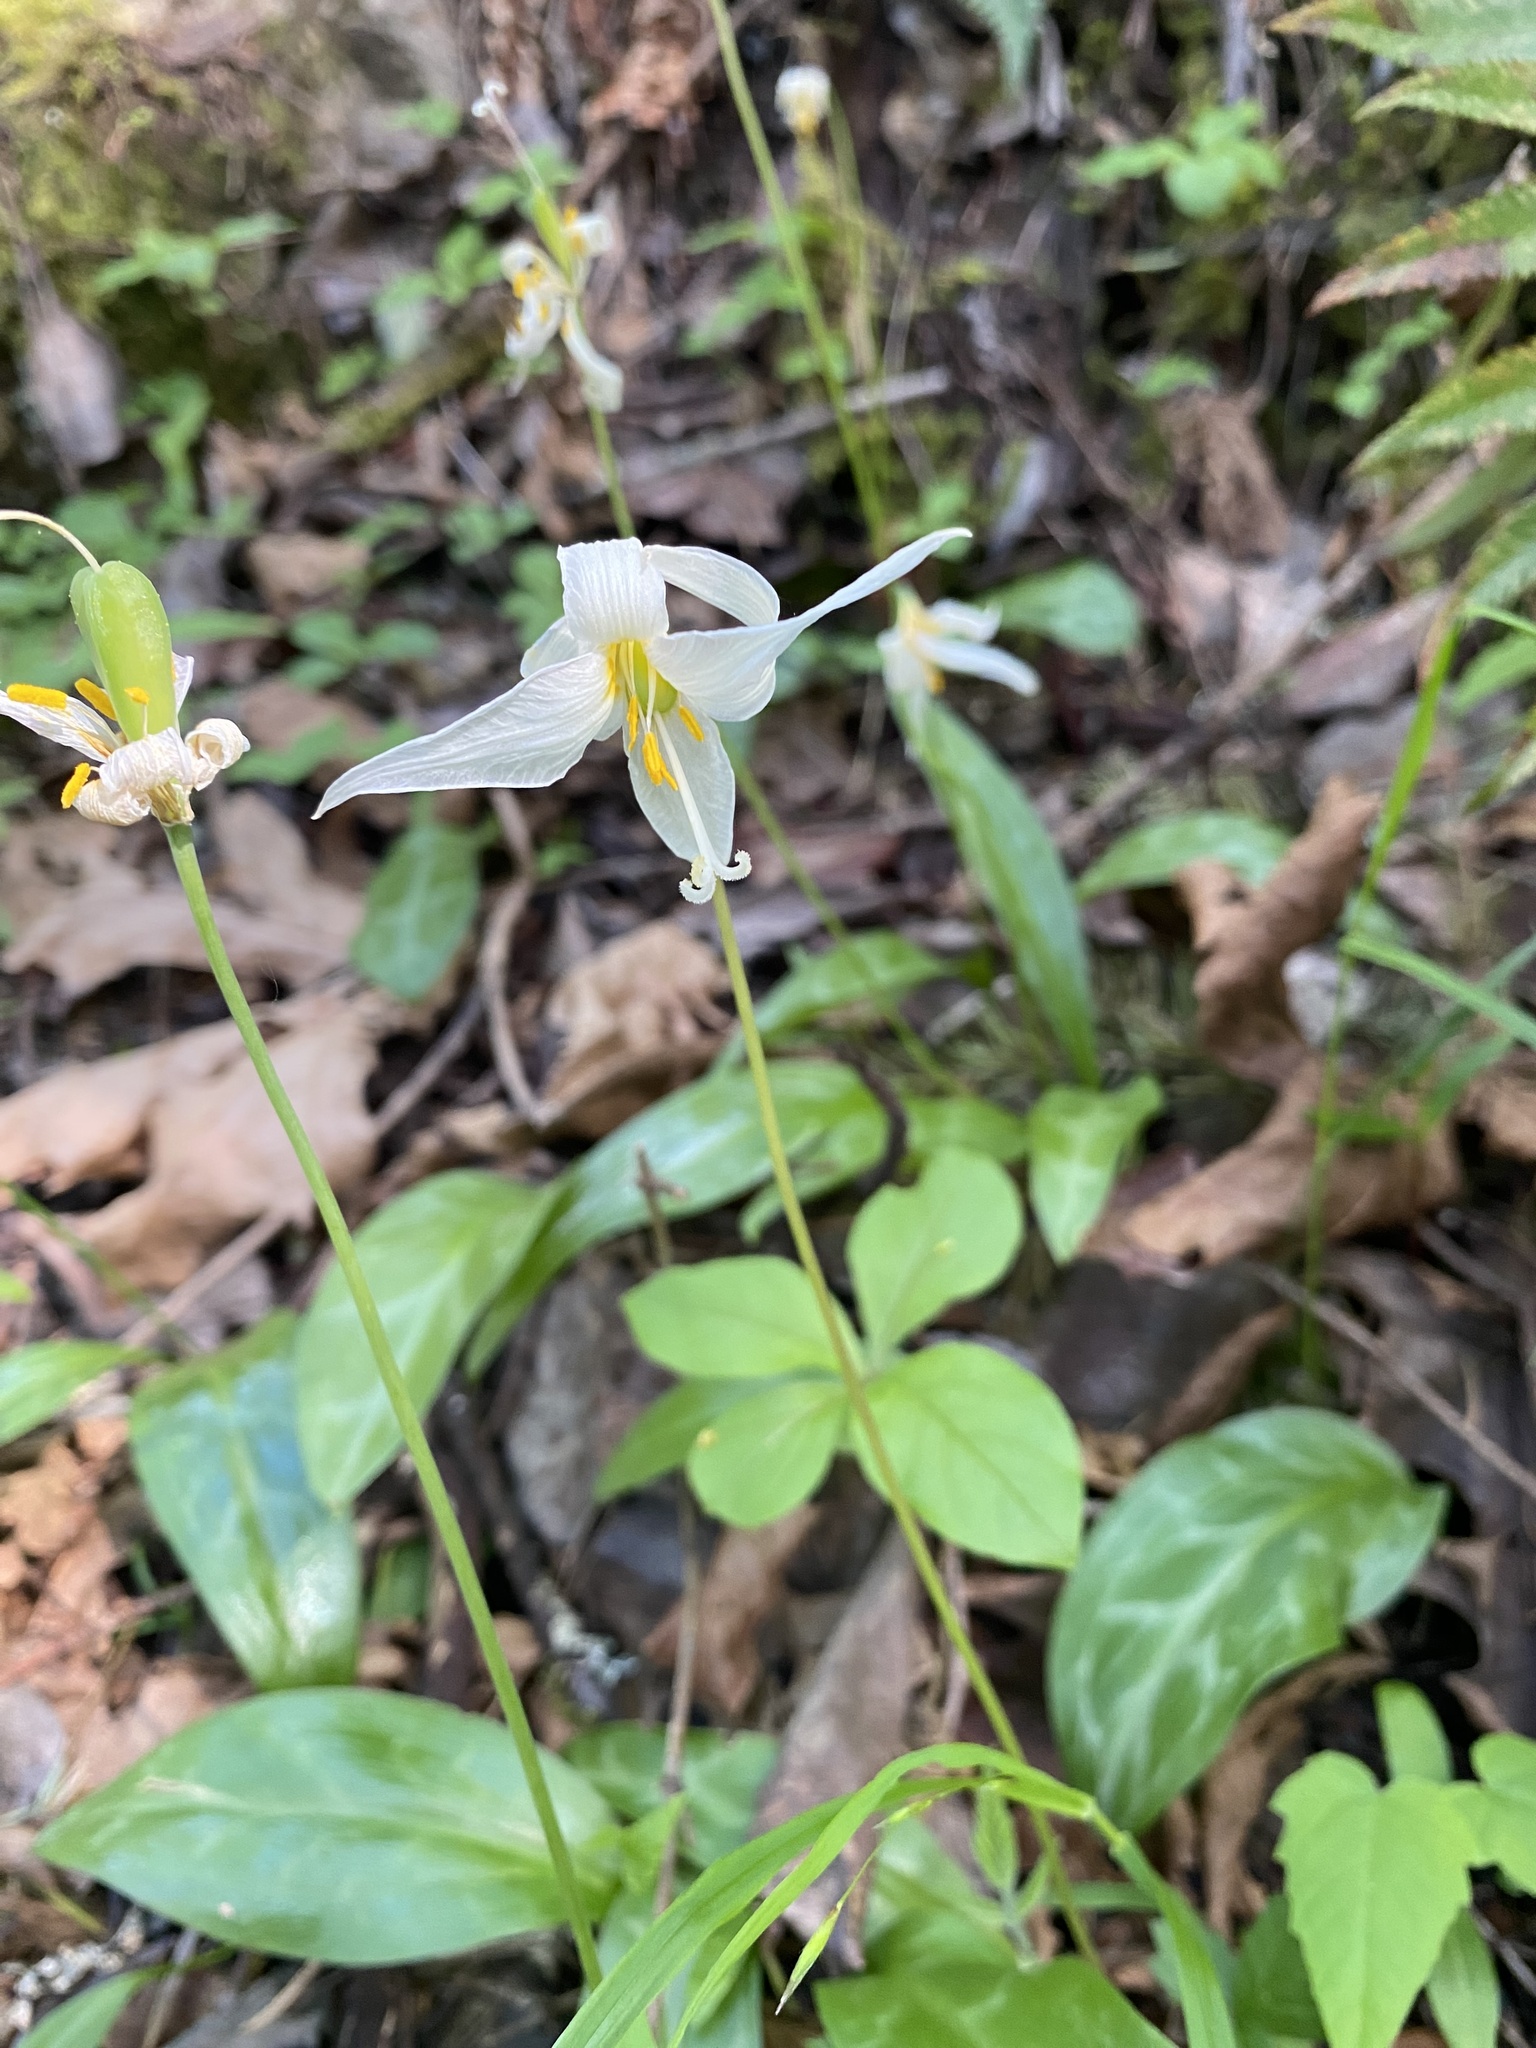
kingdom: Plantae
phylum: Tracheophyta
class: Liliopsida
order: Liliales
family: Liliaceae
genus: Erythronium
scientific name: Erythronium oregonum
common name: Giant adder's-tongue
